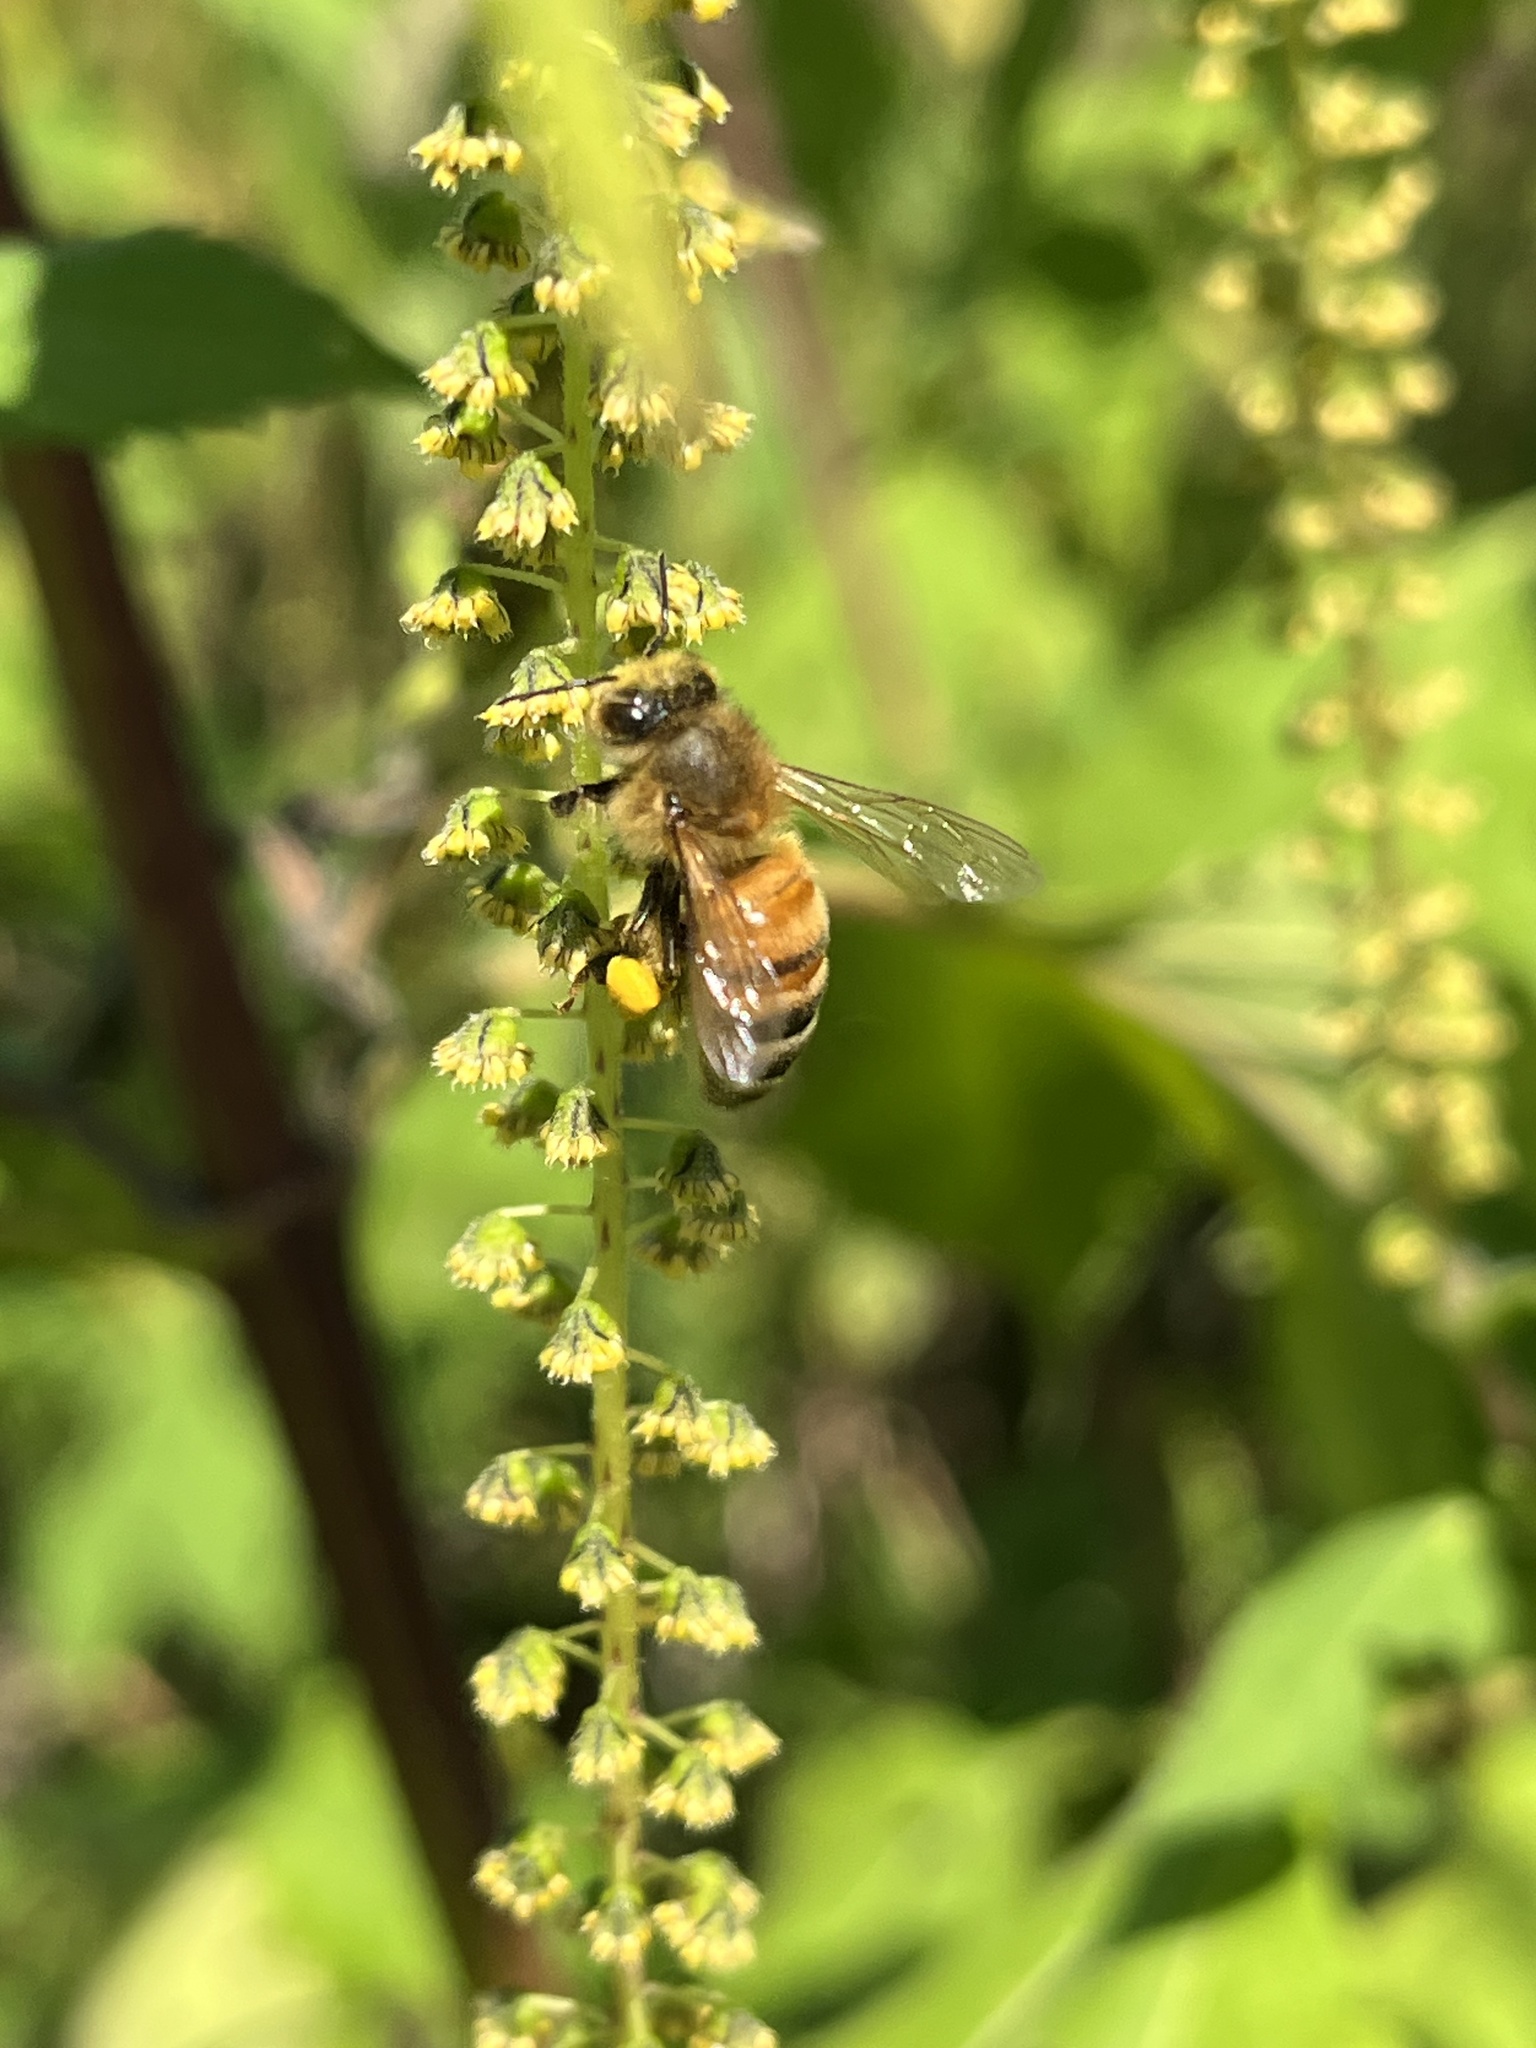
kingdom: Animalia
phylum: Arthropoda
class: Insecta
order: Hymenoptera
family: Apidae
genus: Apis
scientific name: Apis mellifera
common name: Honey bee
